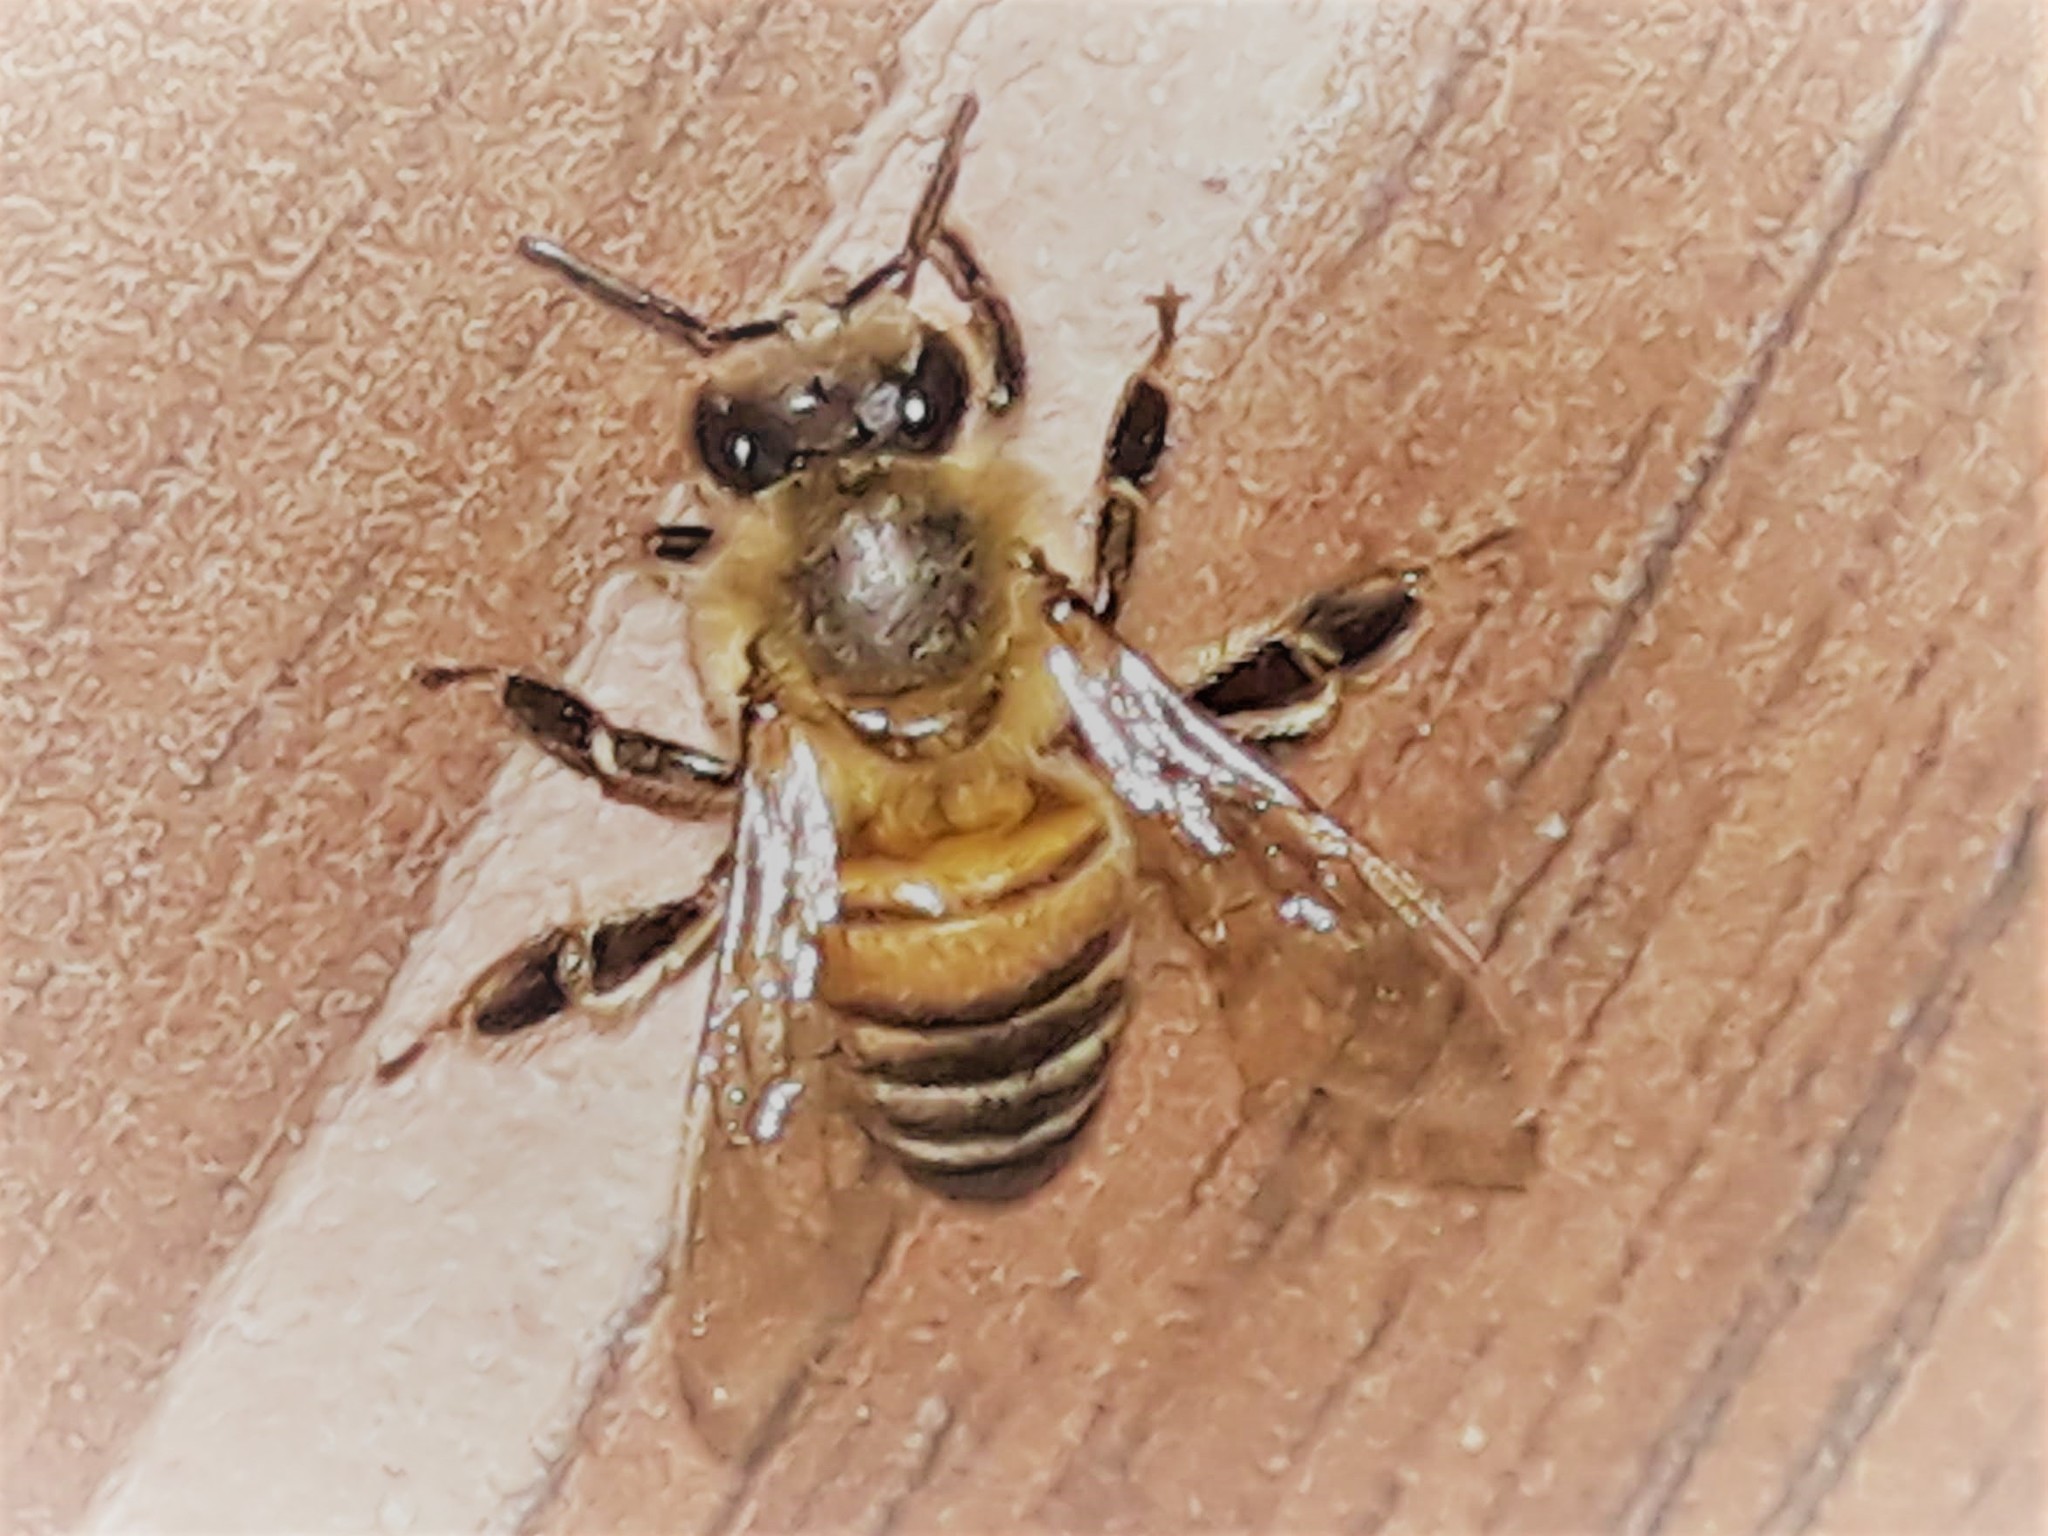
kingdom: Animalia
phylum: Arthropoda
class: Insecta
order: Hymenoptera
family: Apidae
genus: Apis
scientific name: Apis mellifera
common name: Honey bee
